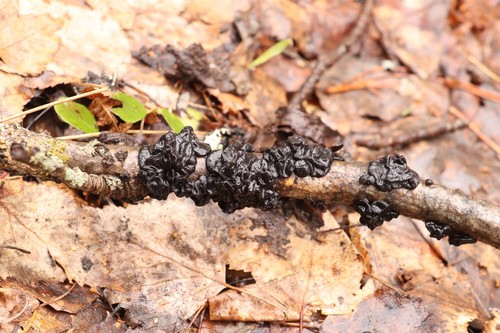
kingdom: Fungi
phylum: Basidiomycota
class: Agaricomycetes
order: Auriculariales
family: Auriculariaceae
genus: Exidia
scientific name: Exidia glandulosa
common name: Witches' butter
